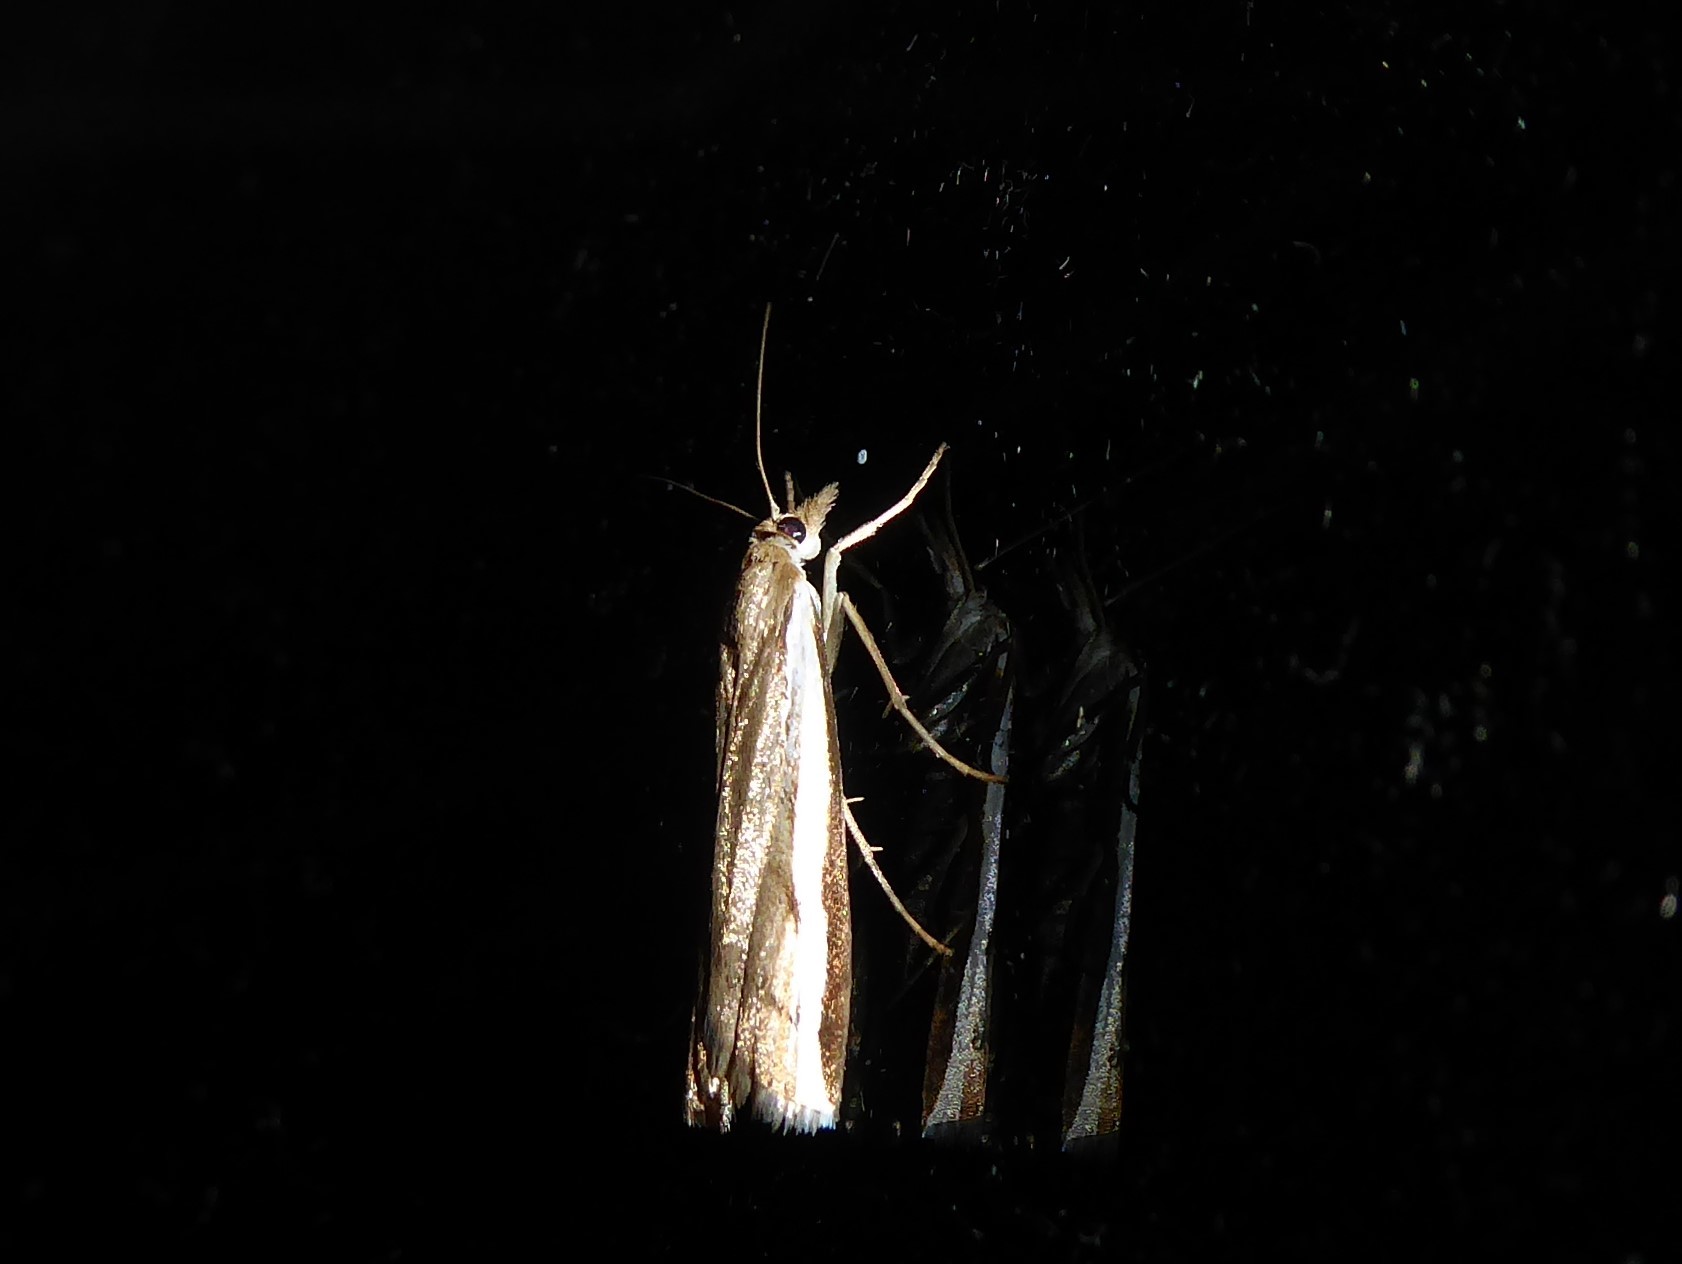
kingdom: Animalia
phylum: Arthropoda
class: Insecta
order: Lepidoptera
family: Crambidae
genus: Orocrambus
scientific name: Orocrambus flexuosellus
